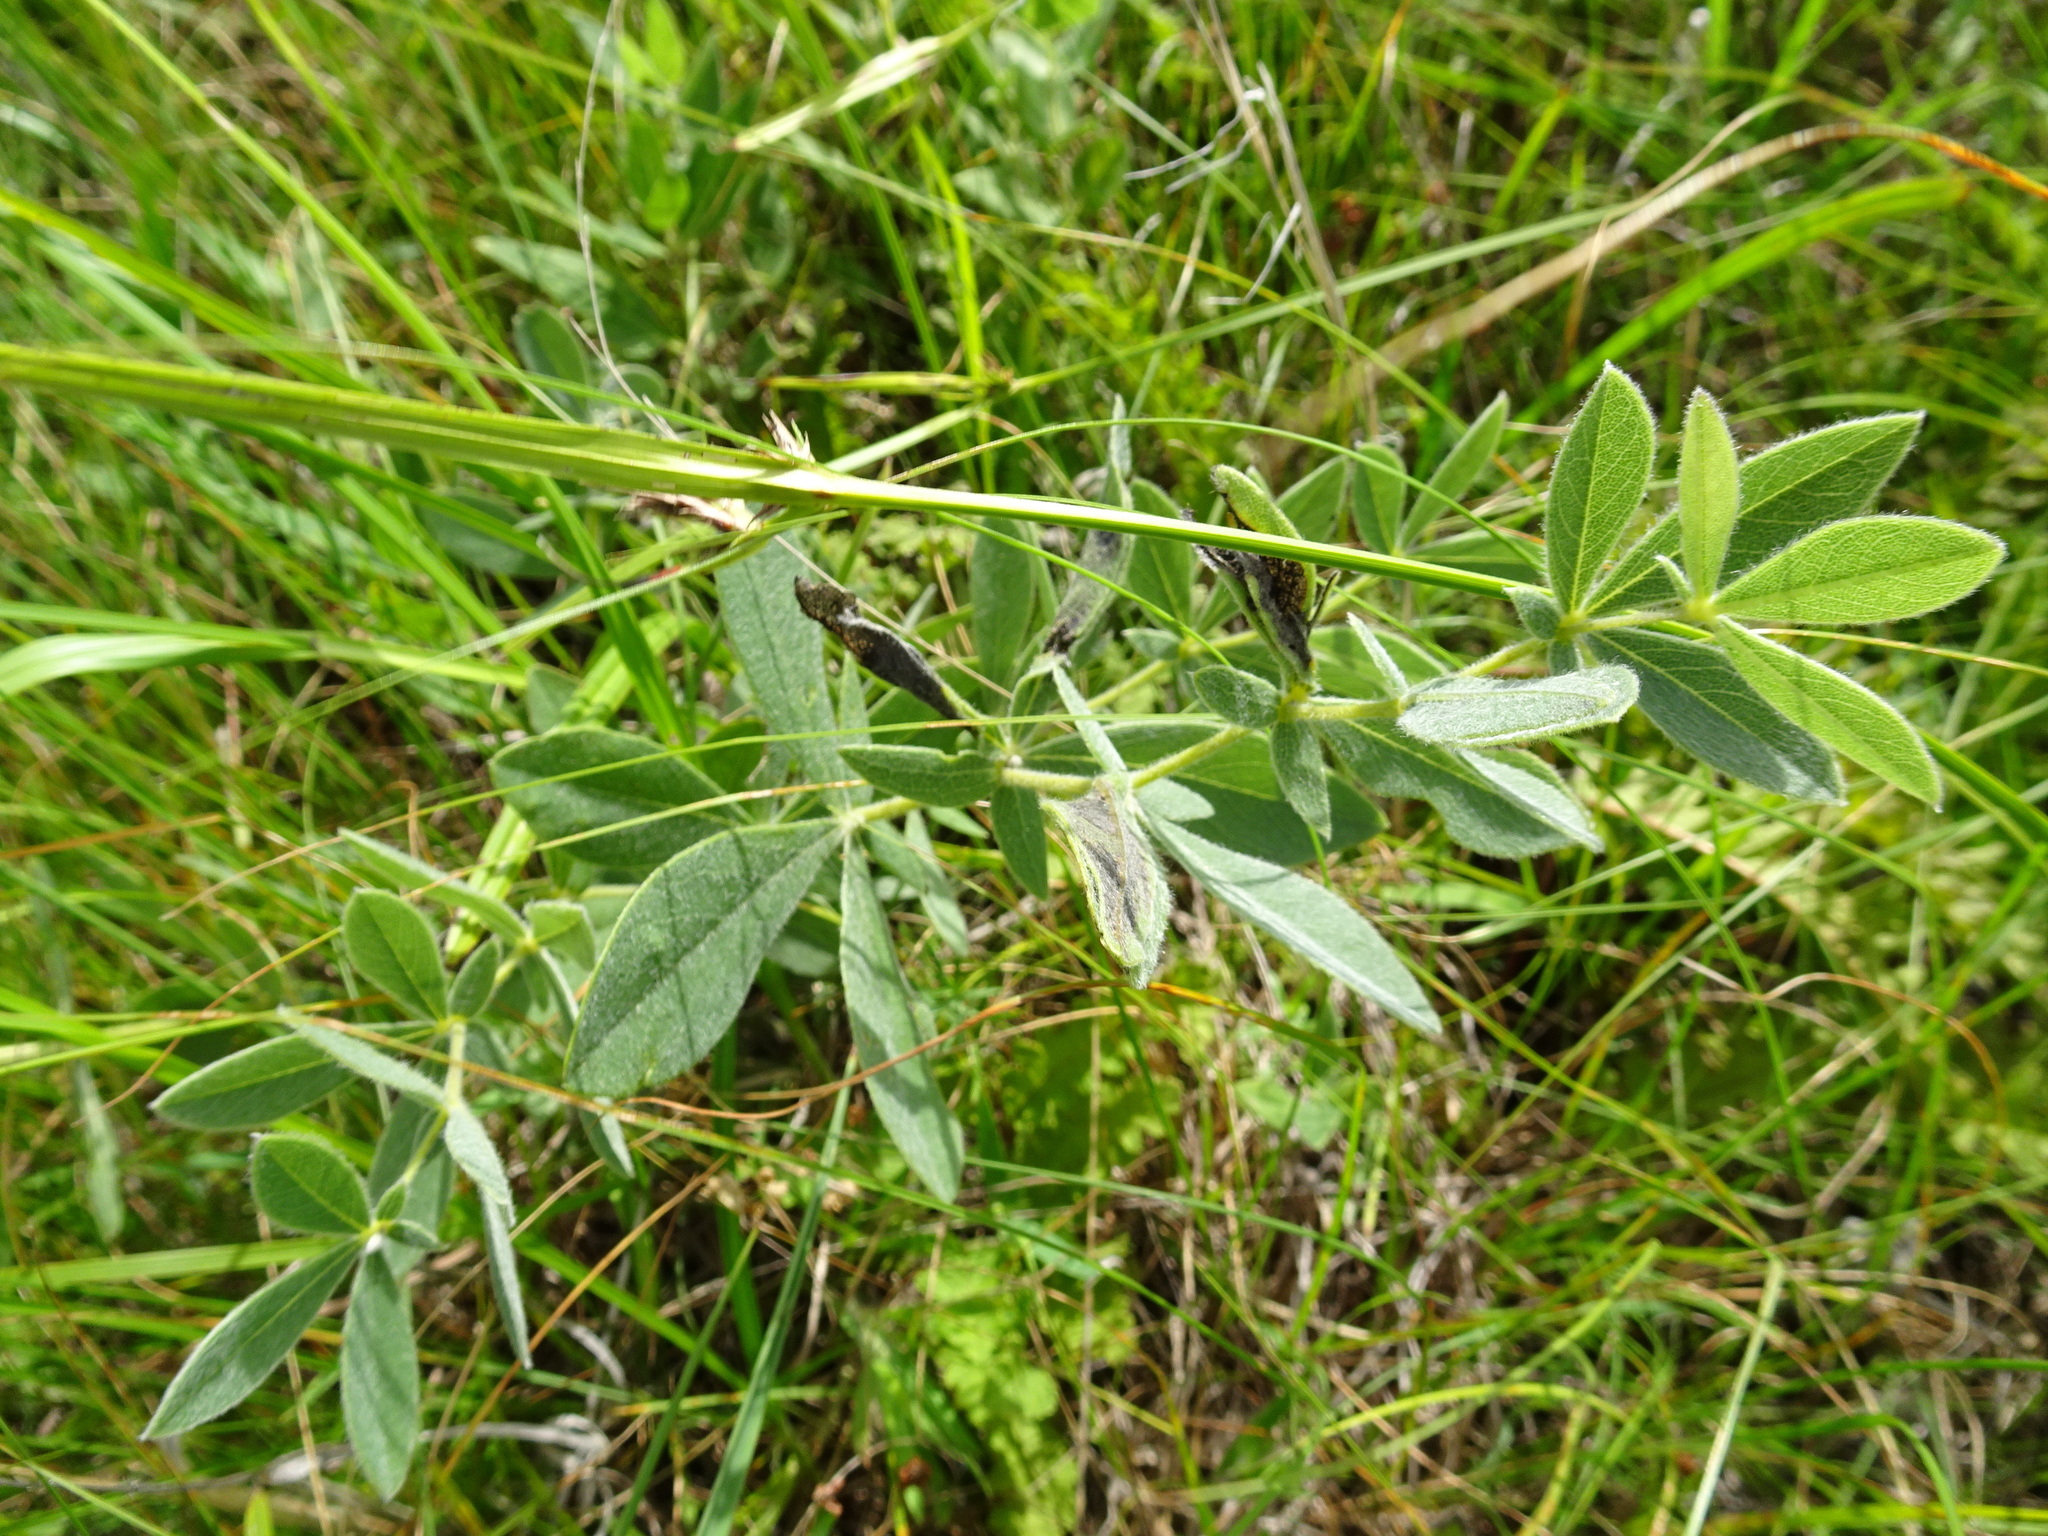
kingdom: Plantae
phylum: Tracheophyta
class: Magnoliopsida
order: Fabales
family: Fabaceae
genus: Baptisia
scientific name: Baptisia bracteata
